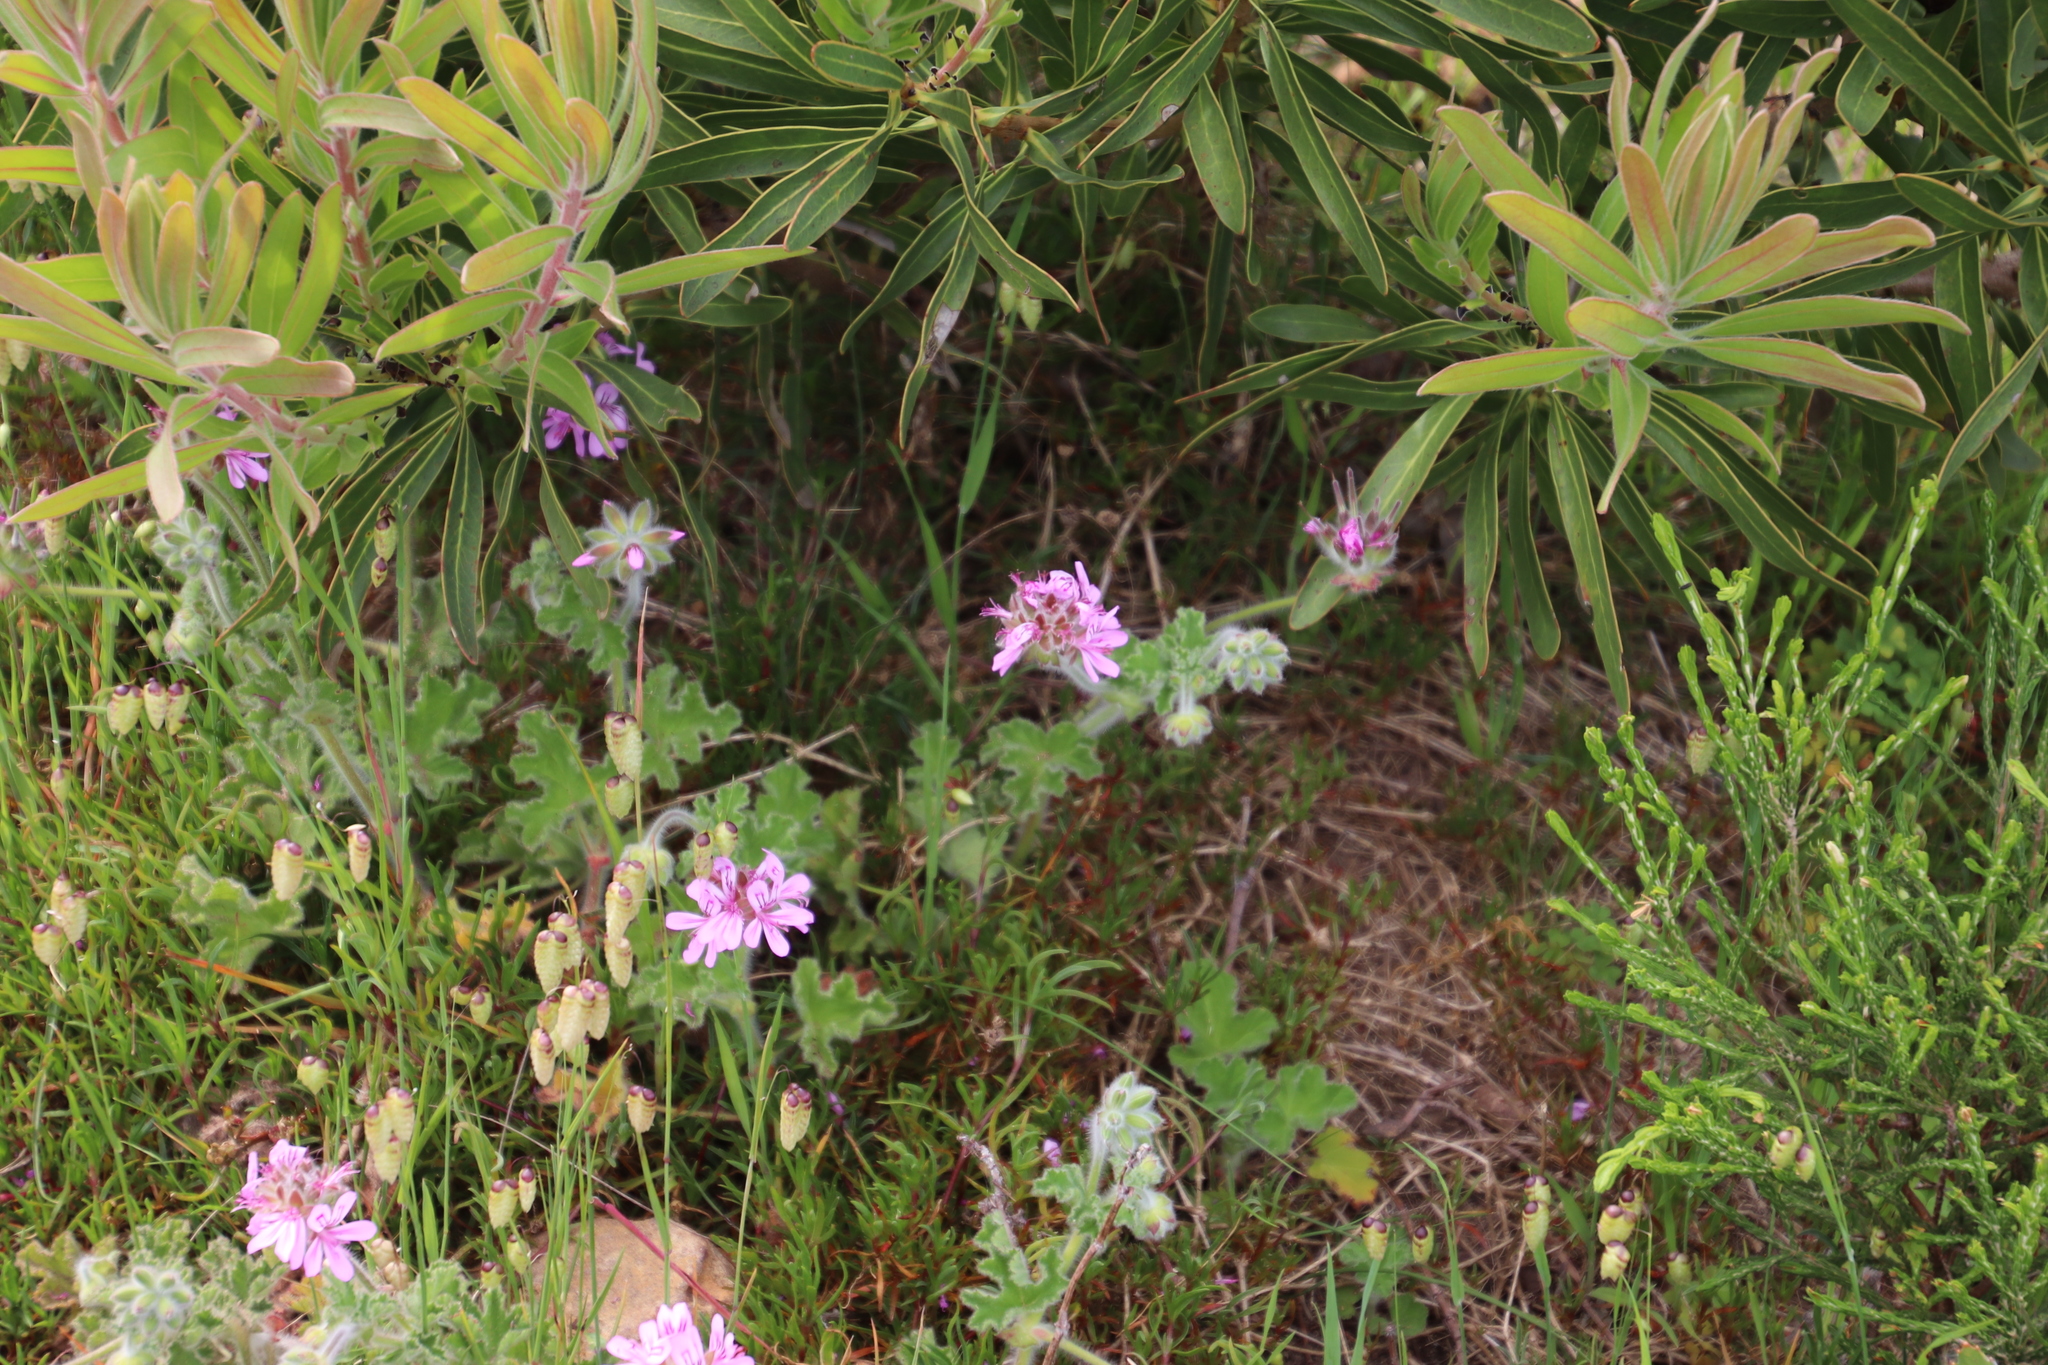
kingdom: Plantae
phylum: Tracheophyta
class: Magnoliopsida
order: Geraniales
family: Geraniaceae
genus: Pelargonium
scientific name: Pelargonium capitatum
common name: Rose scented geranium
